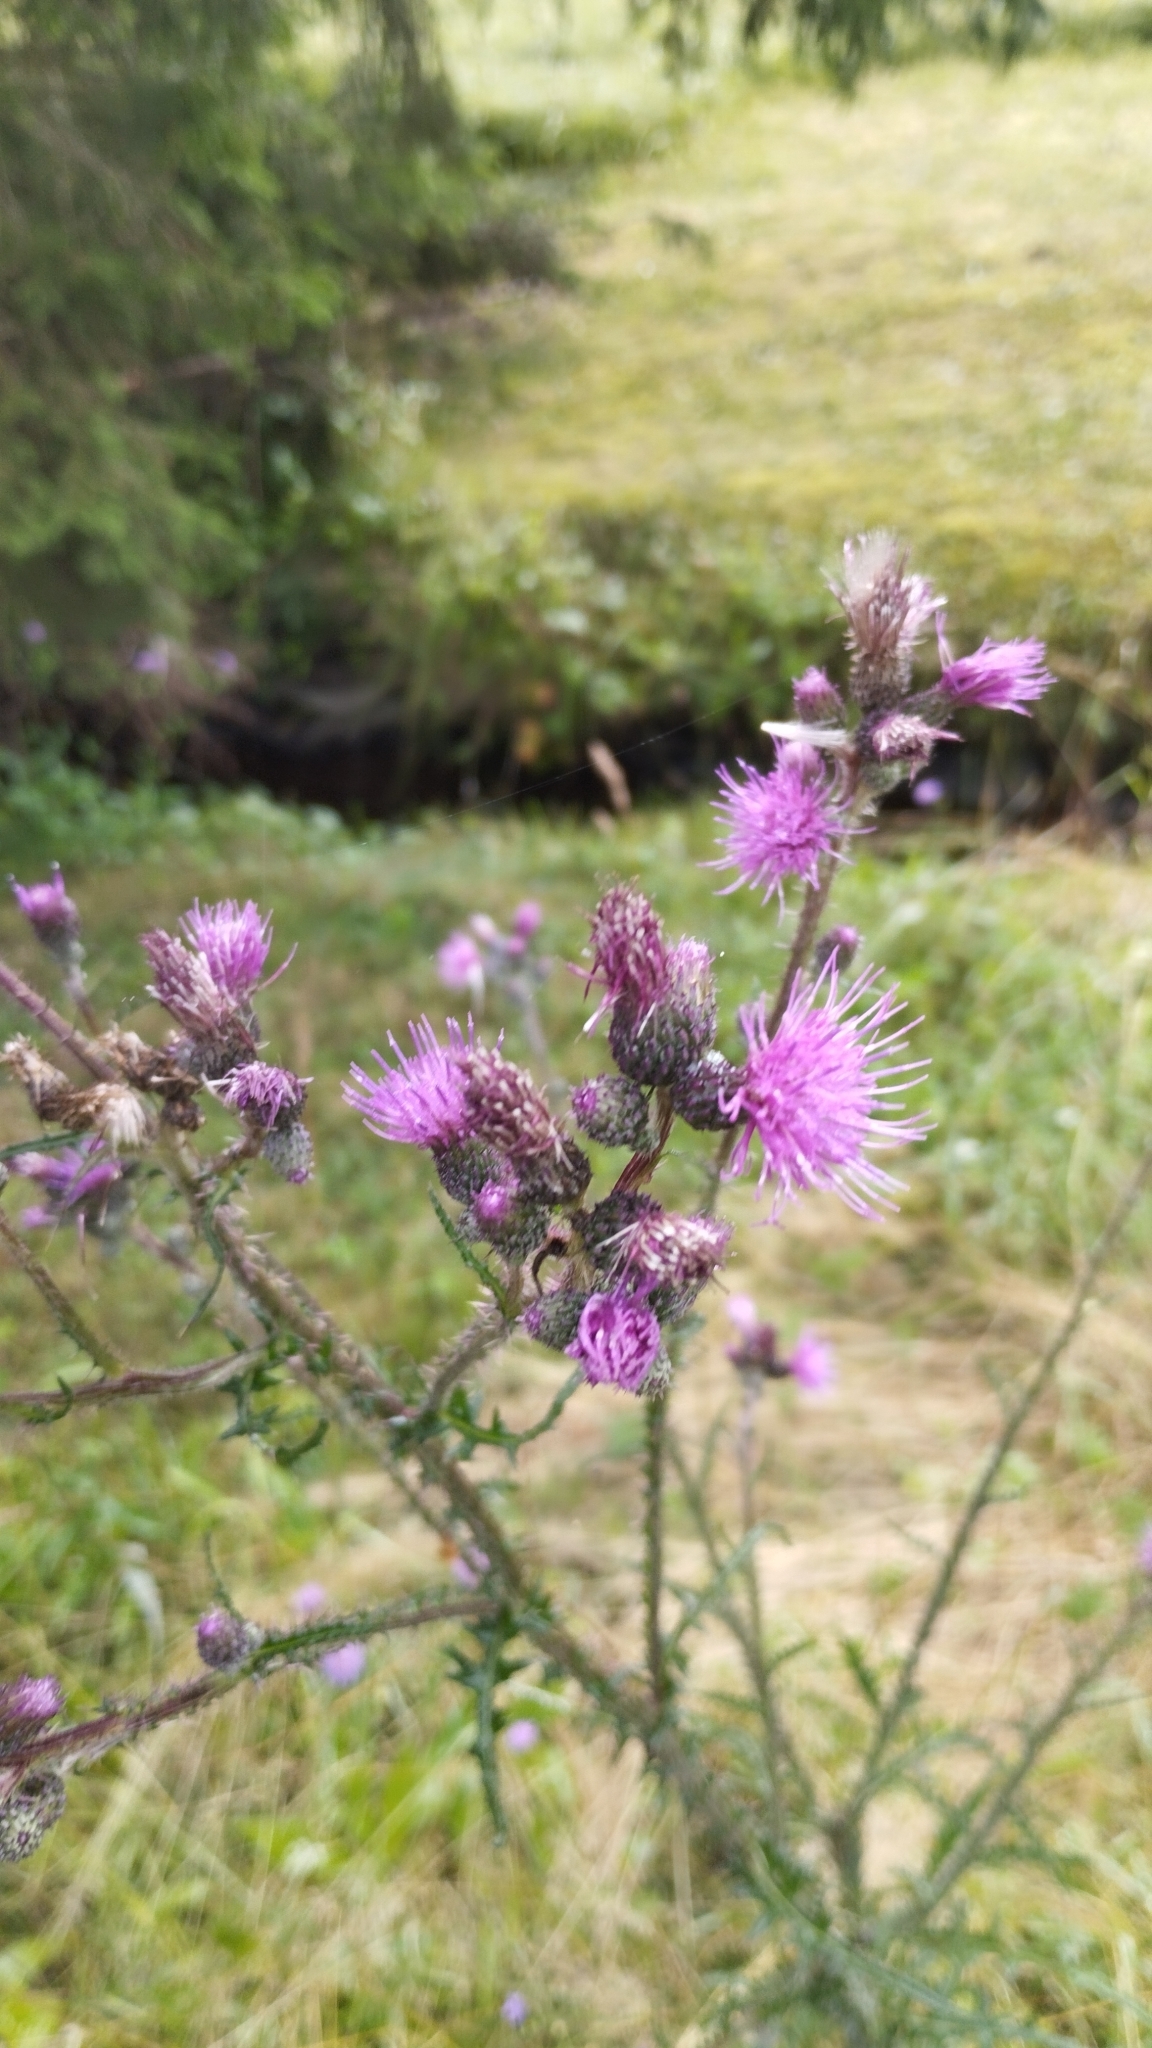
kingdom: Plantae
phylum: Tracheophyta
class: Magnoliopsida
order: Asterales
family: Asteraceae
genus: Cirsium
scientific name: Cirsium palustre
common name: Marsh thistle
